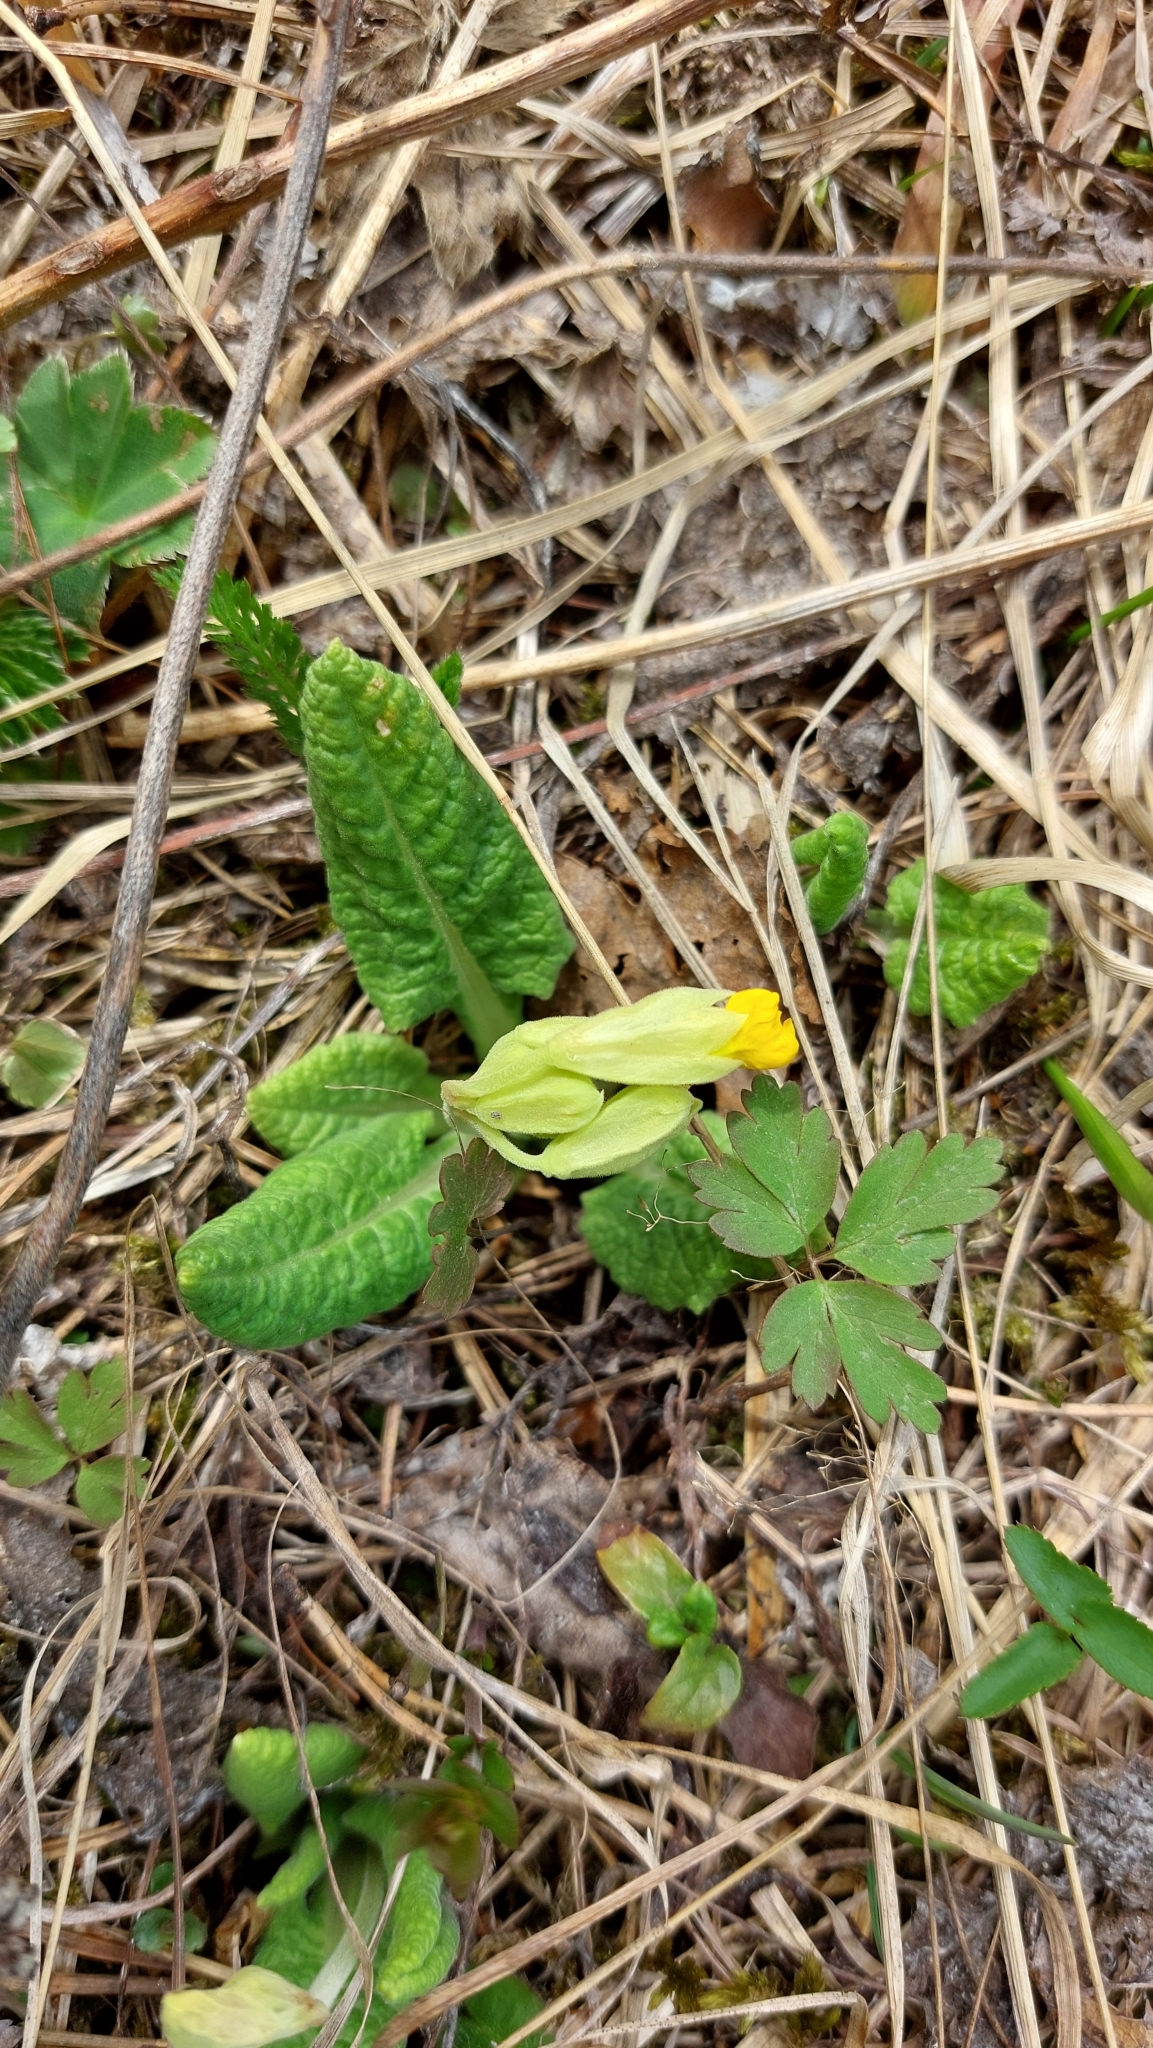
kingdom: Plantae
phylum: Tracheophyta
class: Magnoliopsida
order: Ericales
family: Primulaceae
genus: Primula
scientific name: Primula veris
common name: Cowslip
